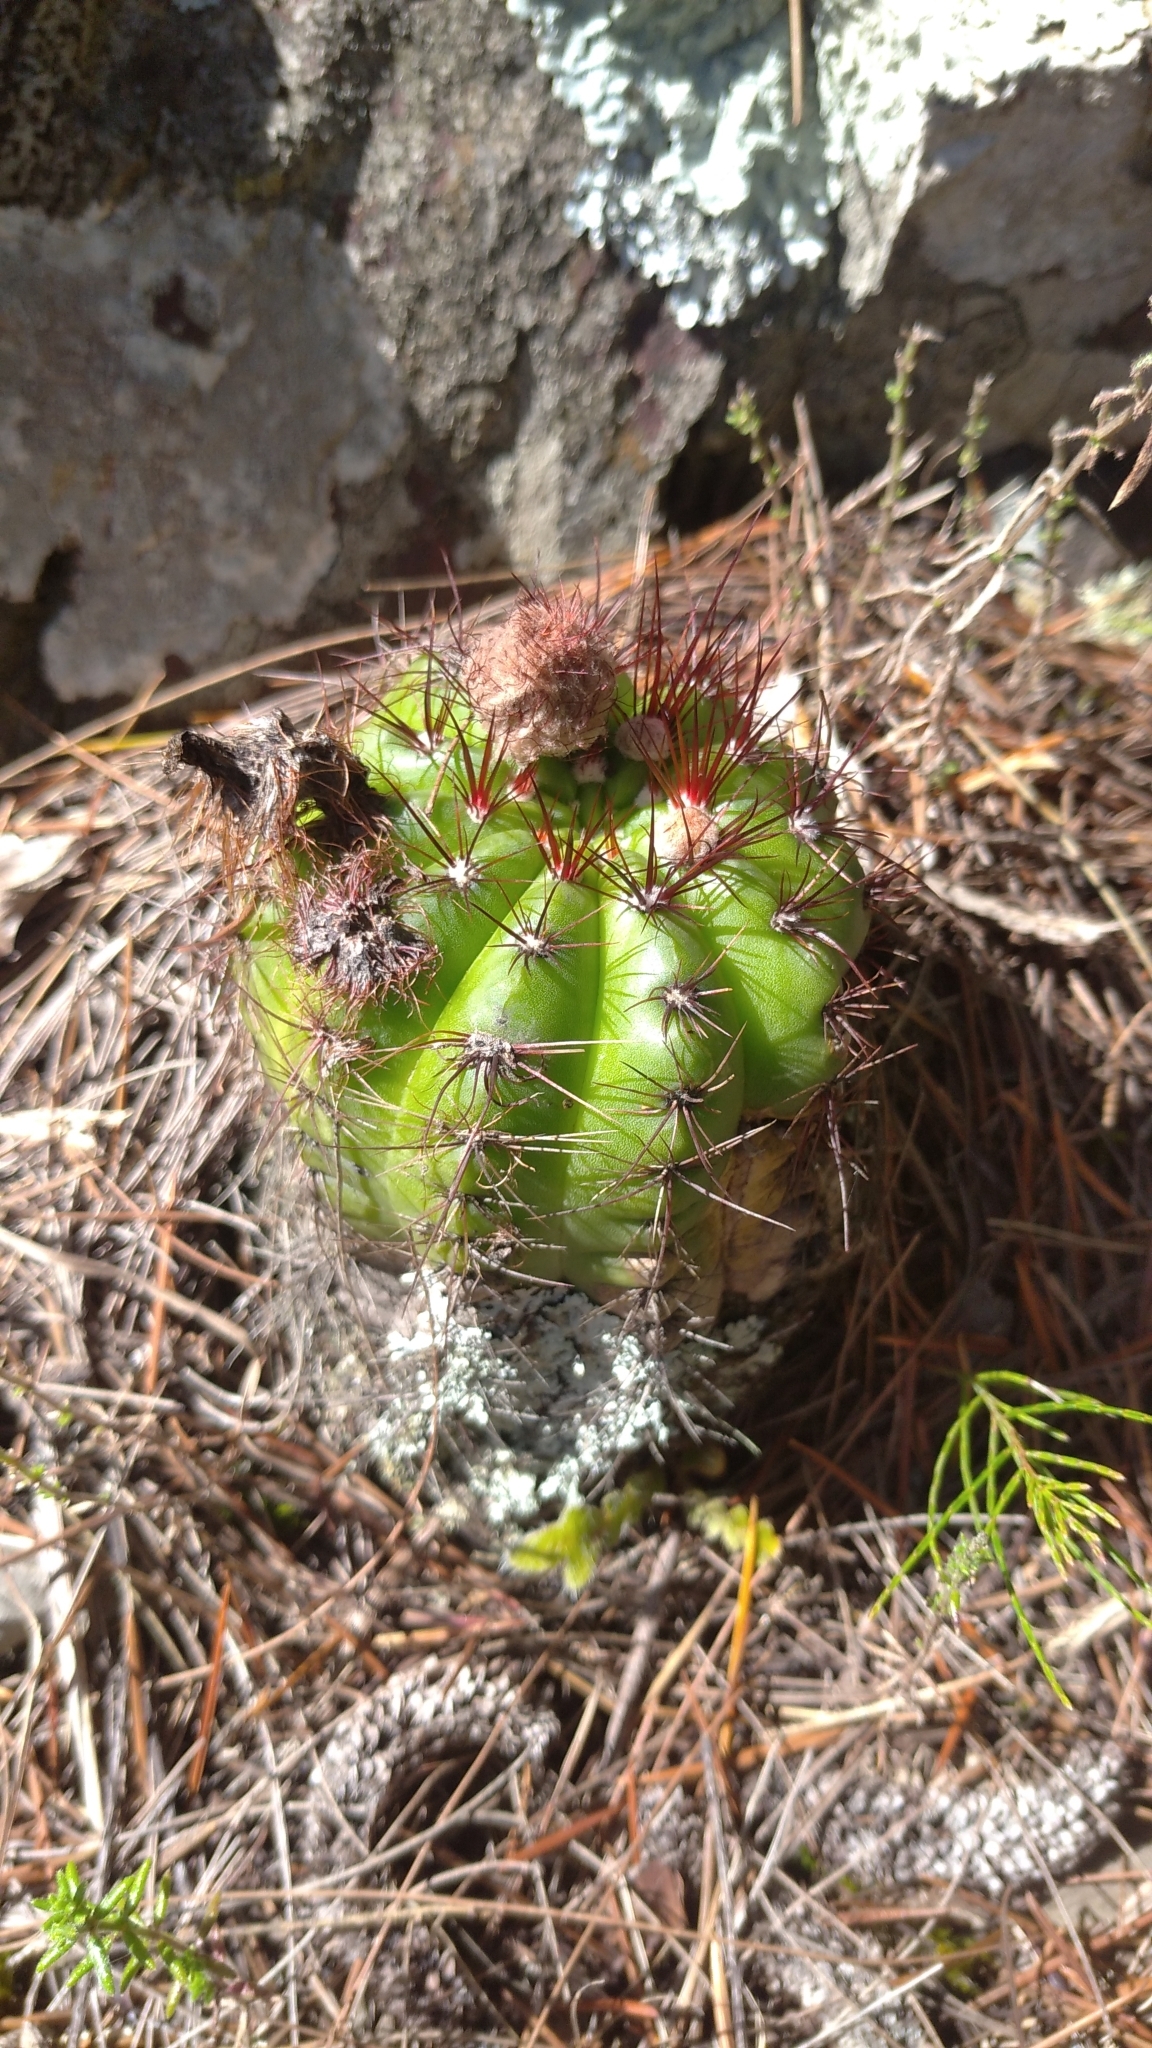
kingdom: Plantae
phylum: Tracheophyta
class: Magnoliopsida
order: Caryophyllales
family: Cactaceae
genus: Parodia
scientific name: Parodia ottonis
